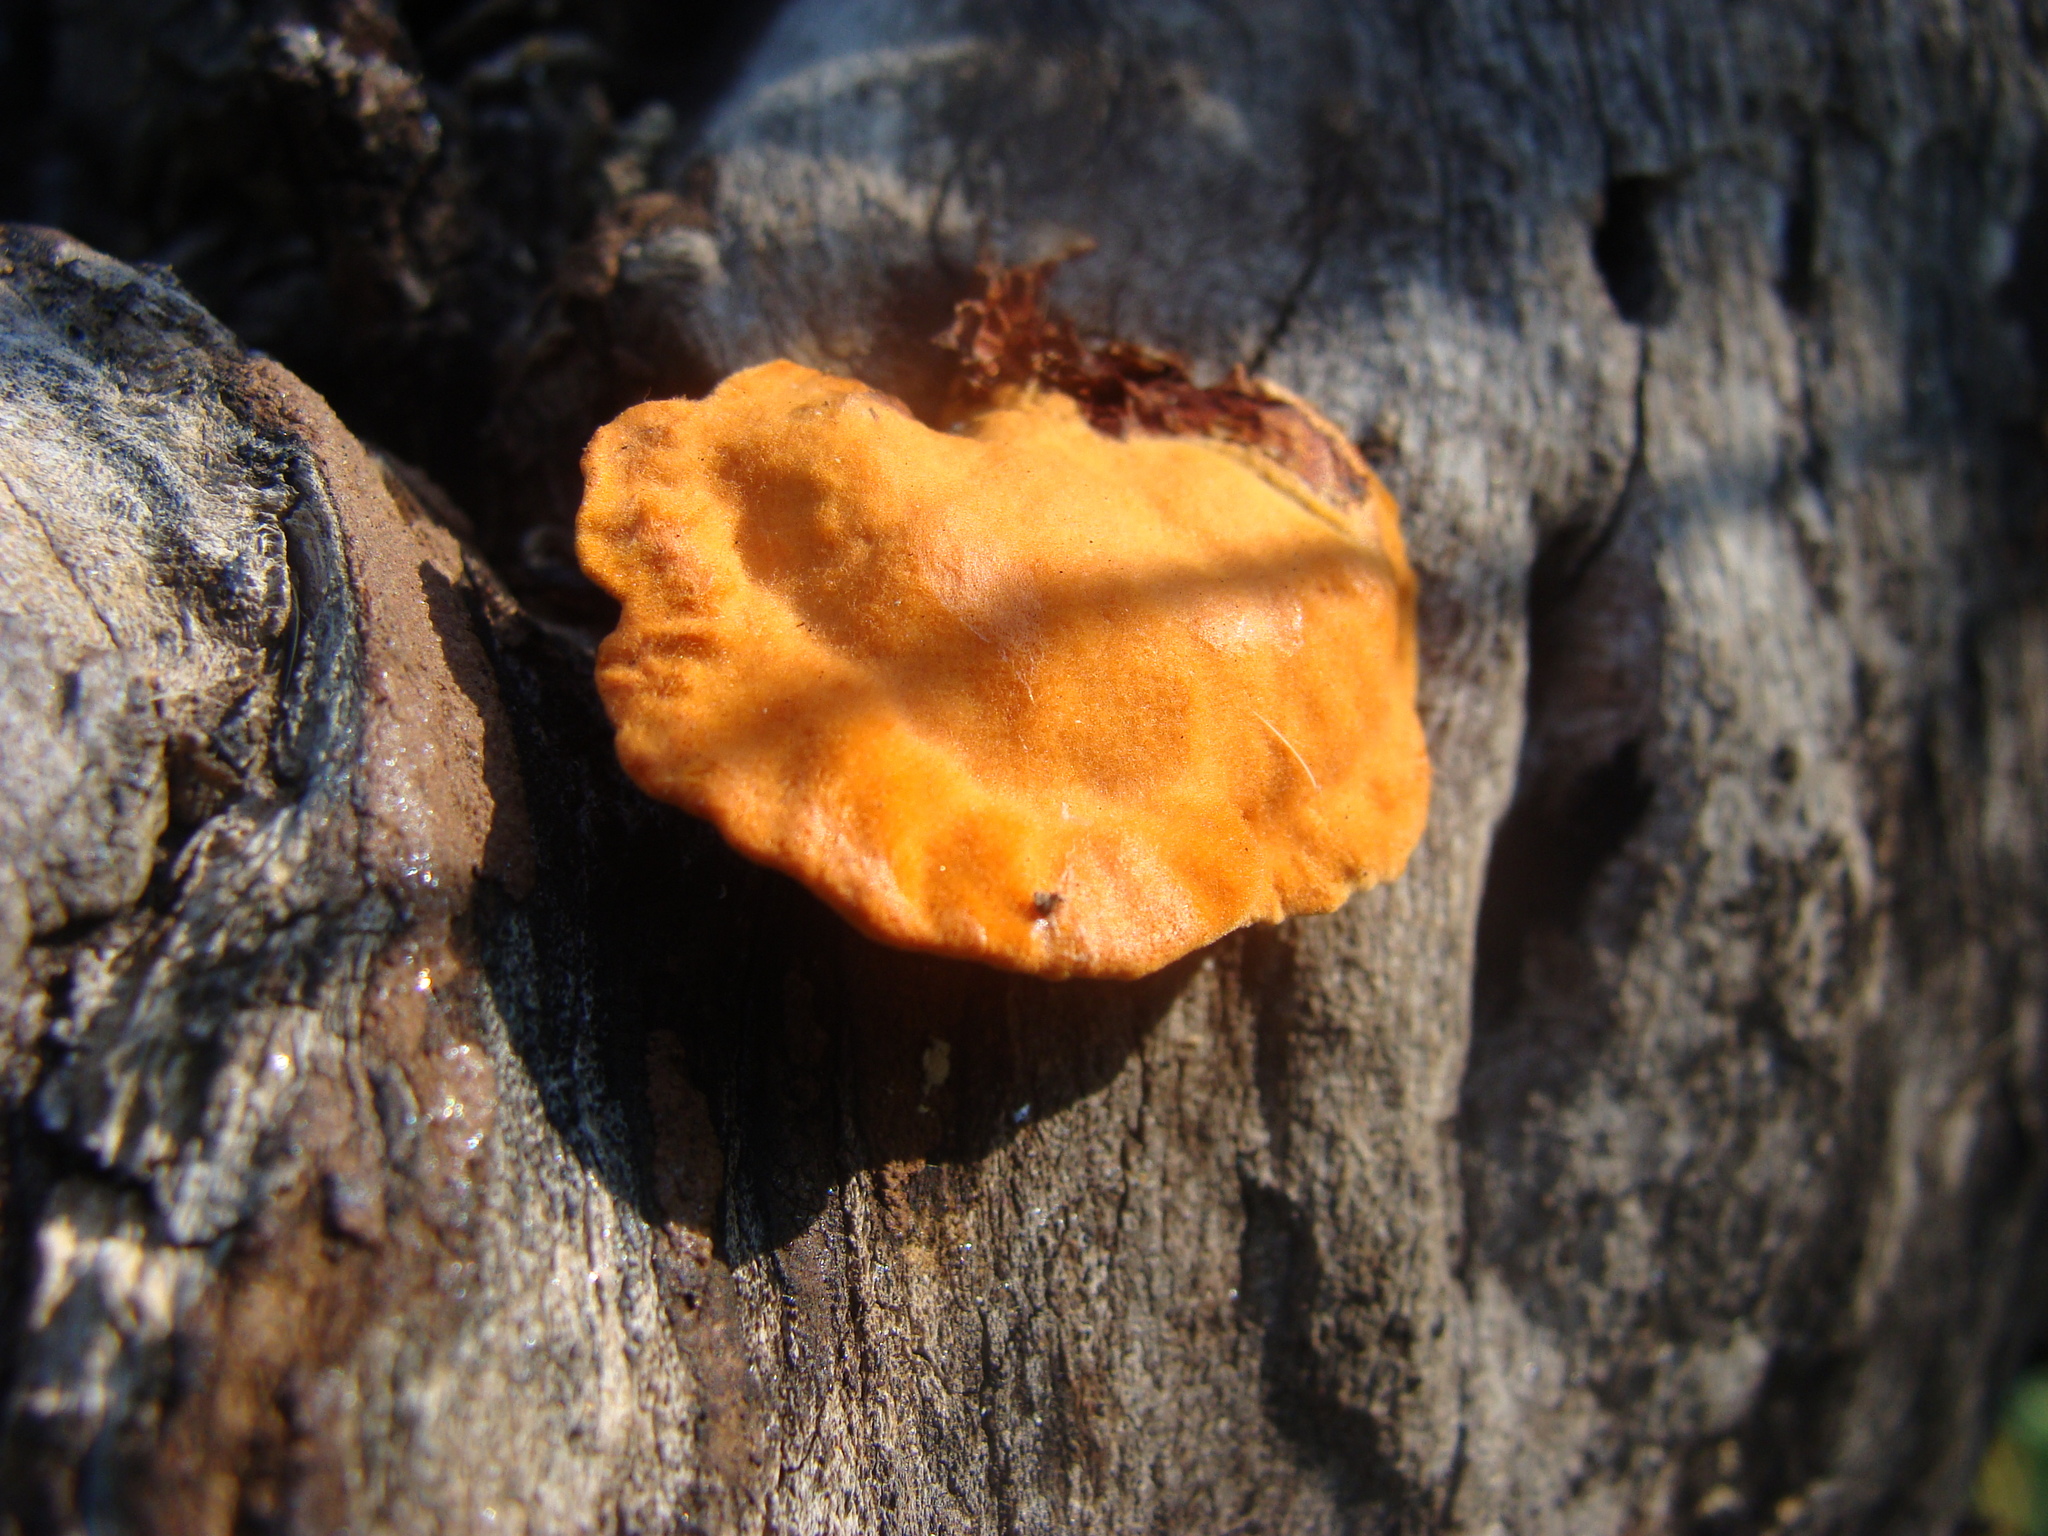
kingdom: Fungi
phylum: Basidiomycota
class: Agaricomycetes
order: Polyporales
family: Polyporaceae
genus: Trametes
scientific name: Trametes cinnabarina
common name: Northern cinnabar polypore
